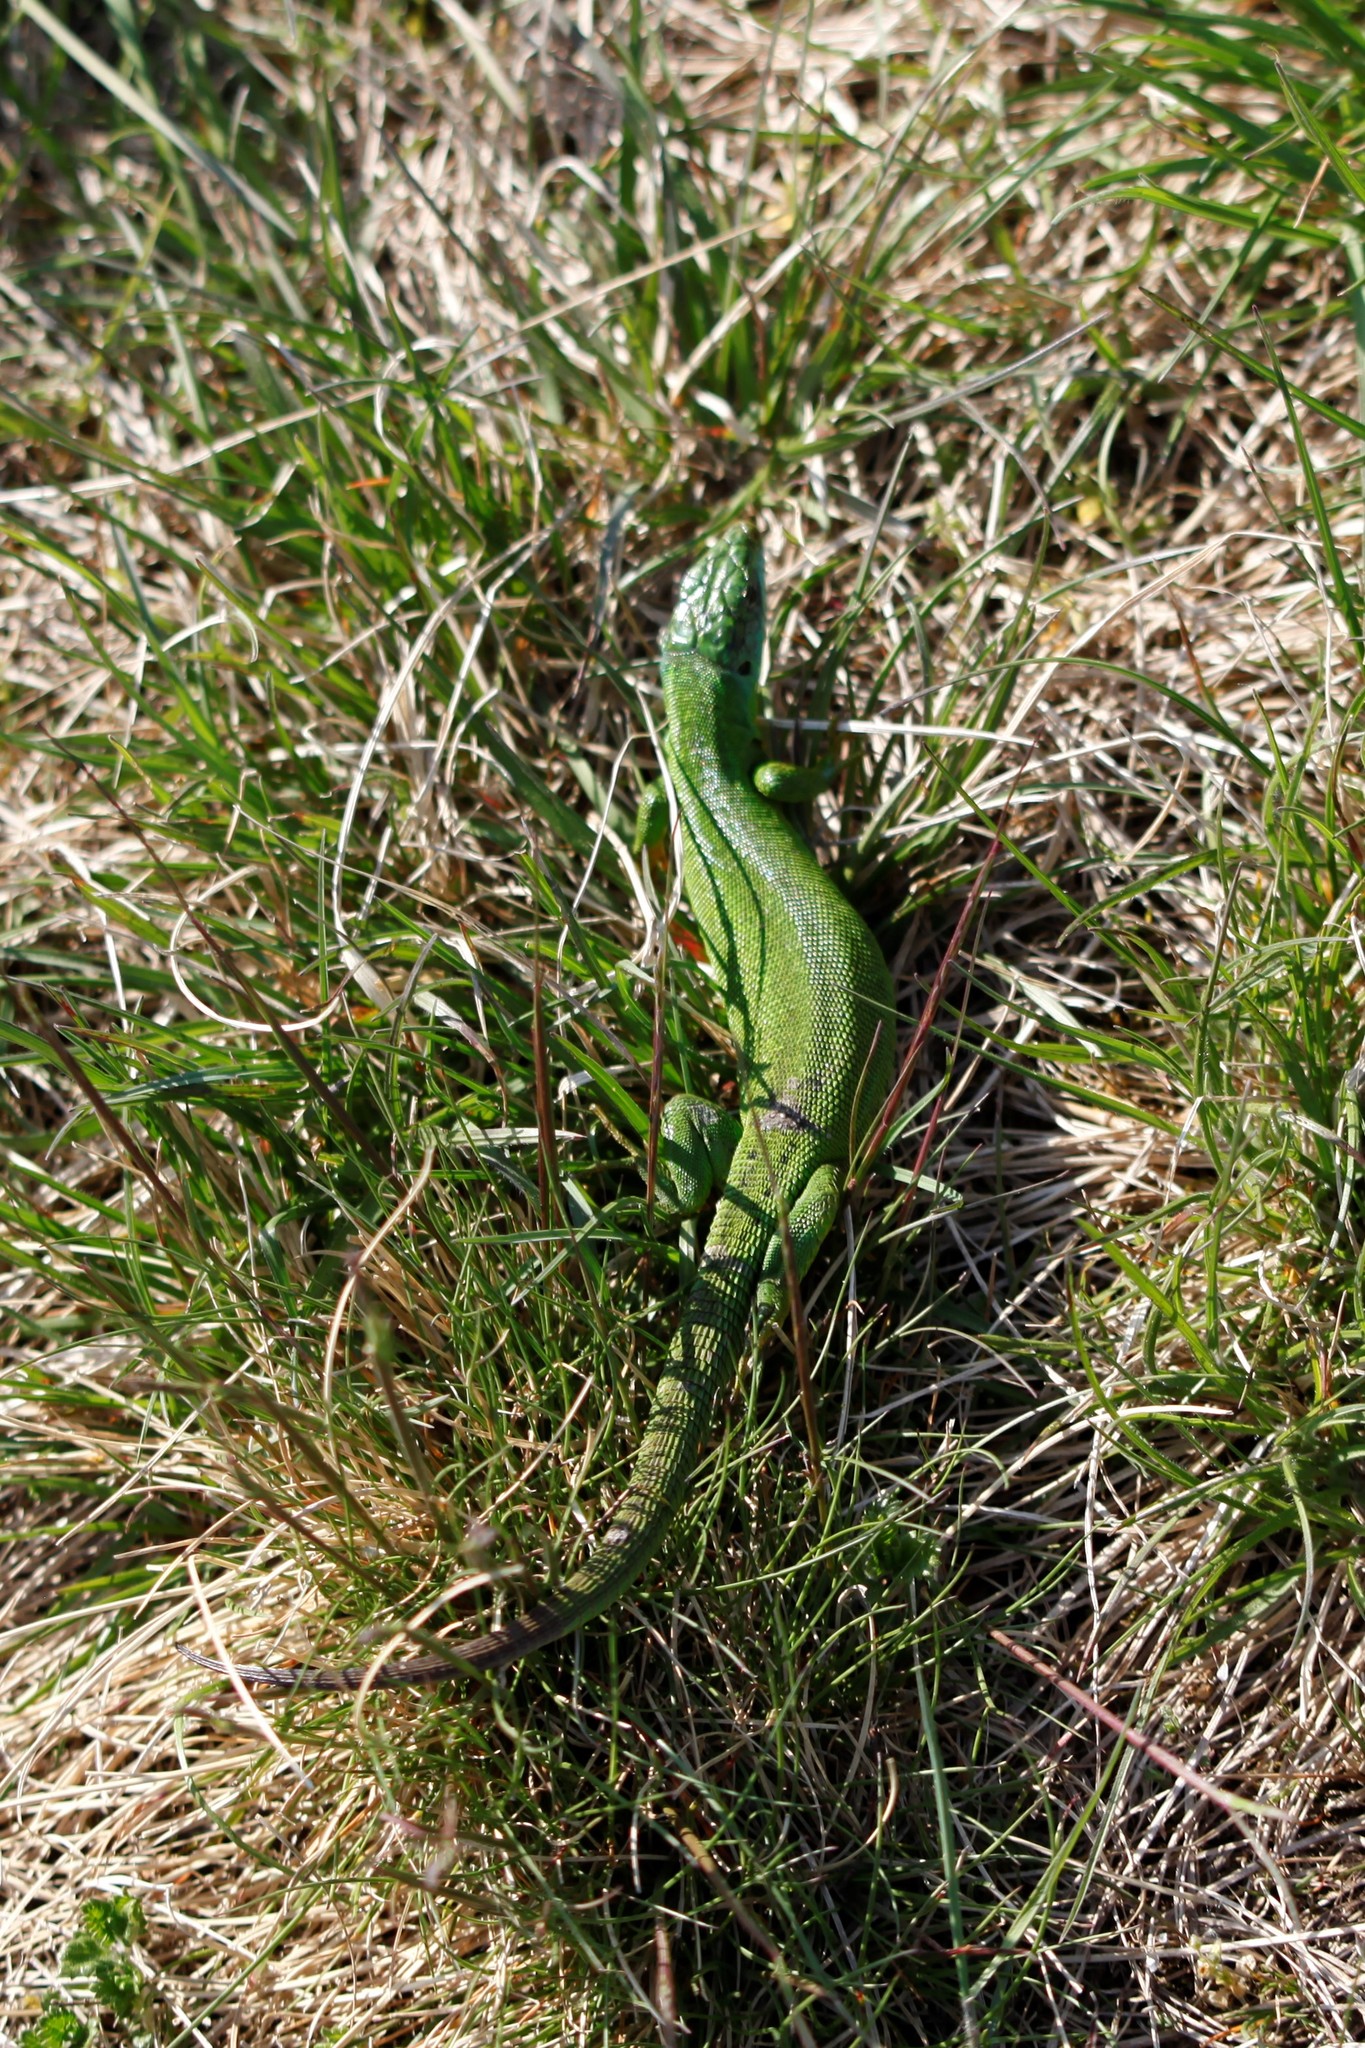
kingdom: Animalia
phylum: Chordata
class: Squamata
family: Lacertidae
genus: Lacerta
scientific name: Lacerta bilineata
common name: Western green lizard
